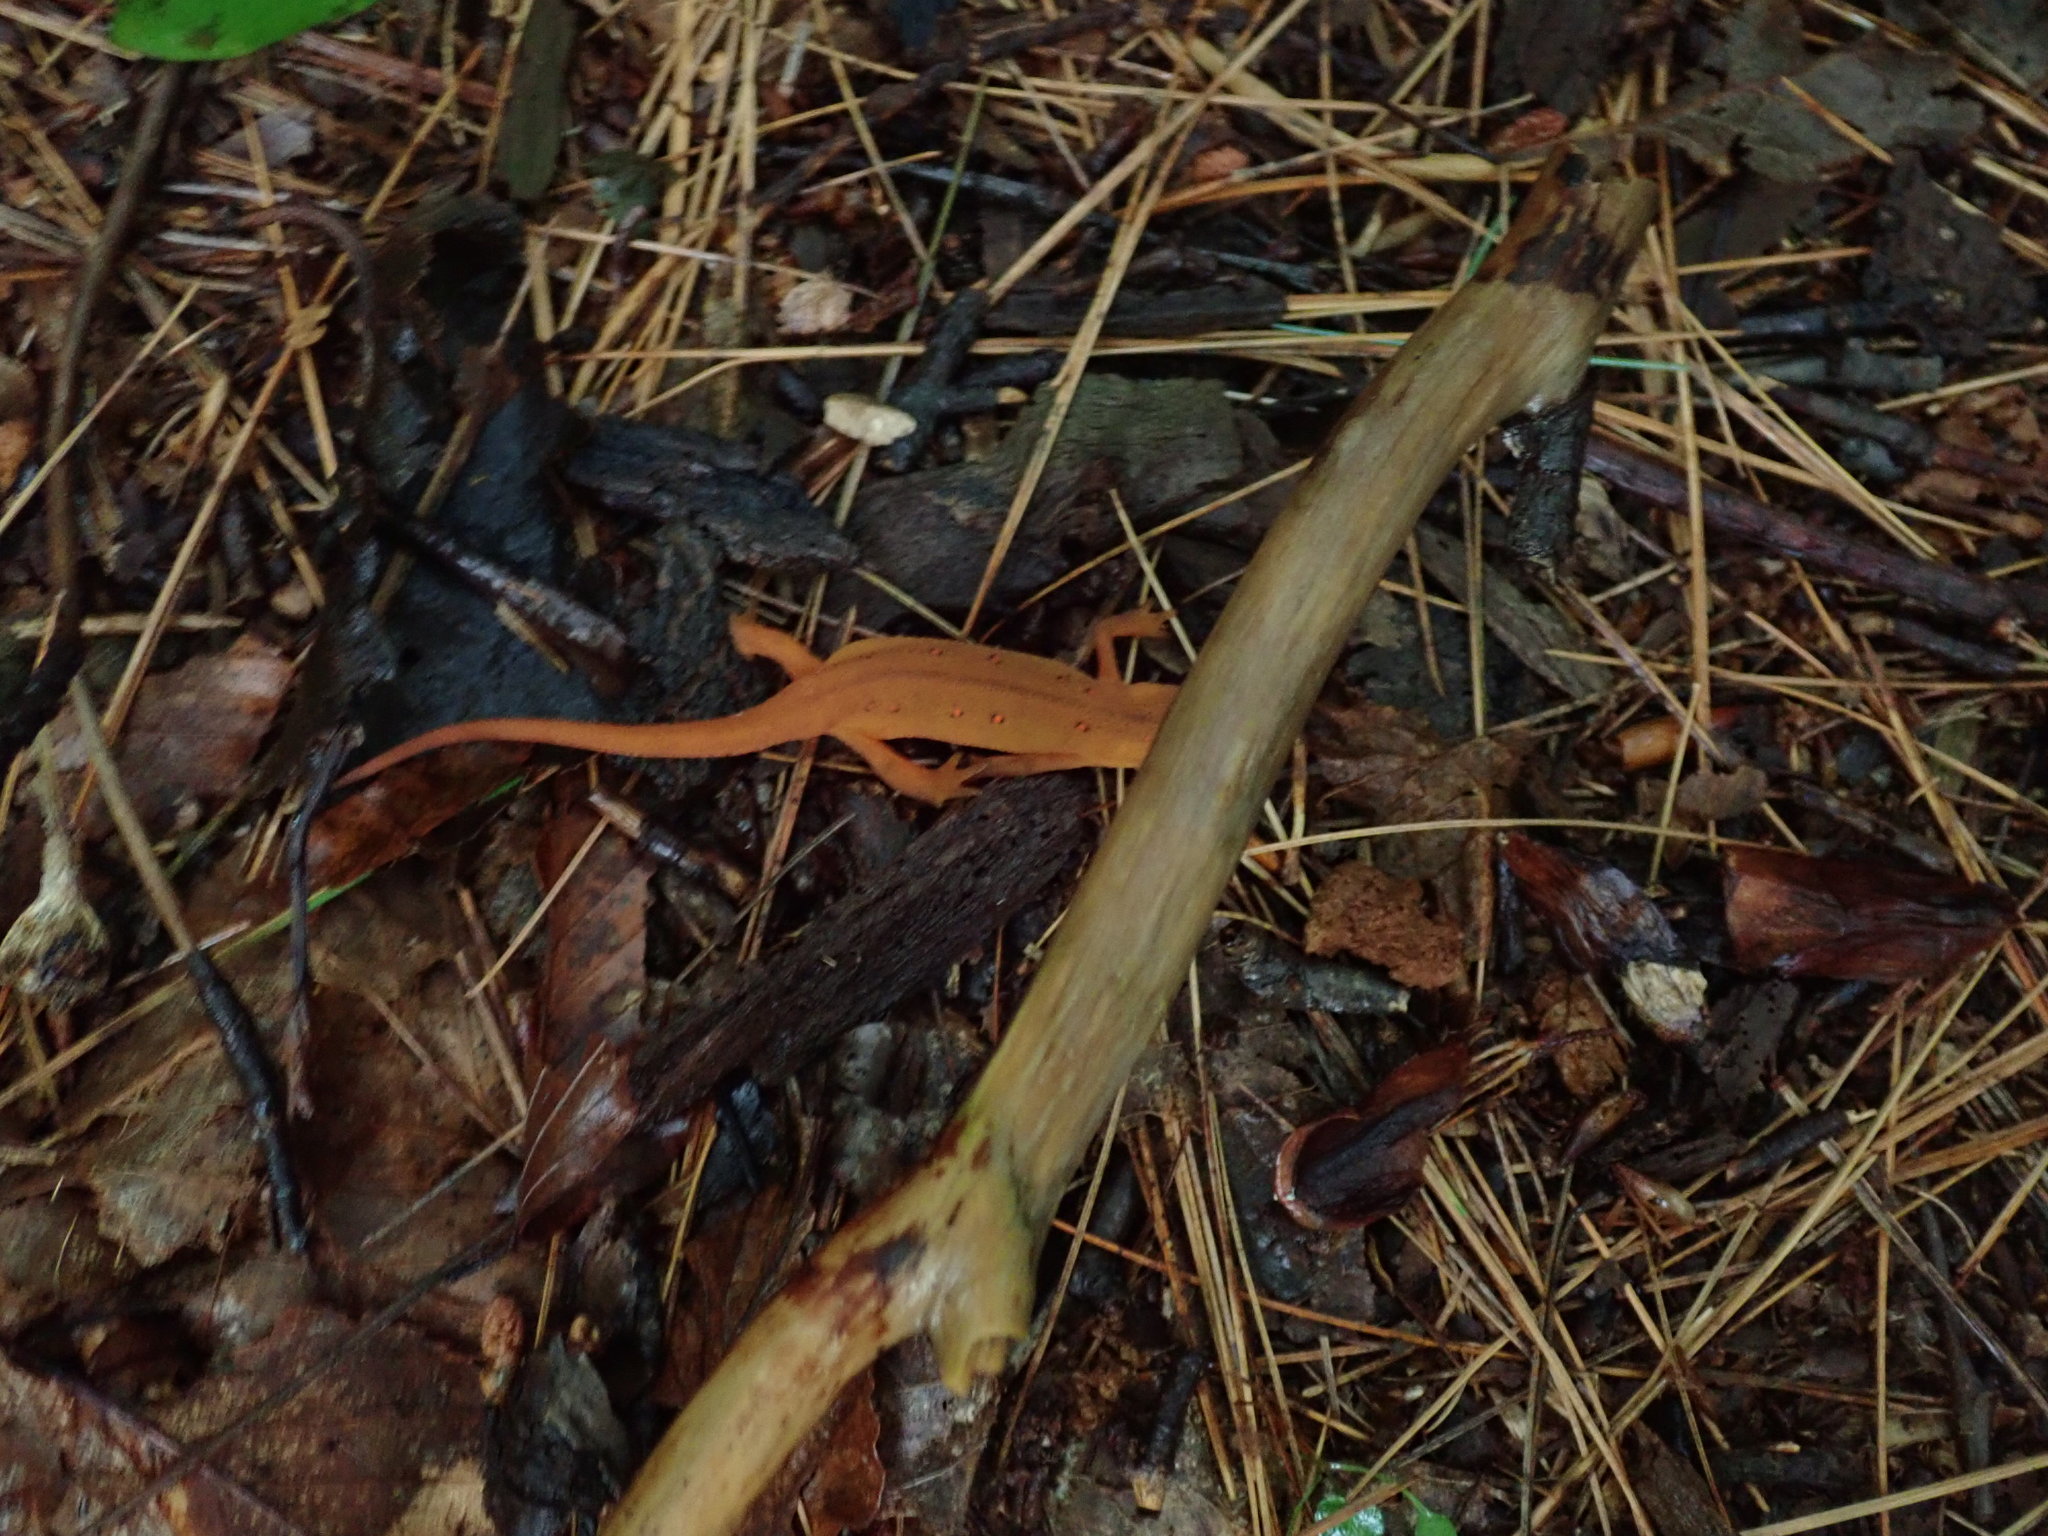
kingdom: Animalia
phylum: Chordata
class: Amphibia
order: Caudata
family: Salamandridae
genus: Notophthalmus
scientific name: Notophthalmus viridescens
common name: Eastern newt
